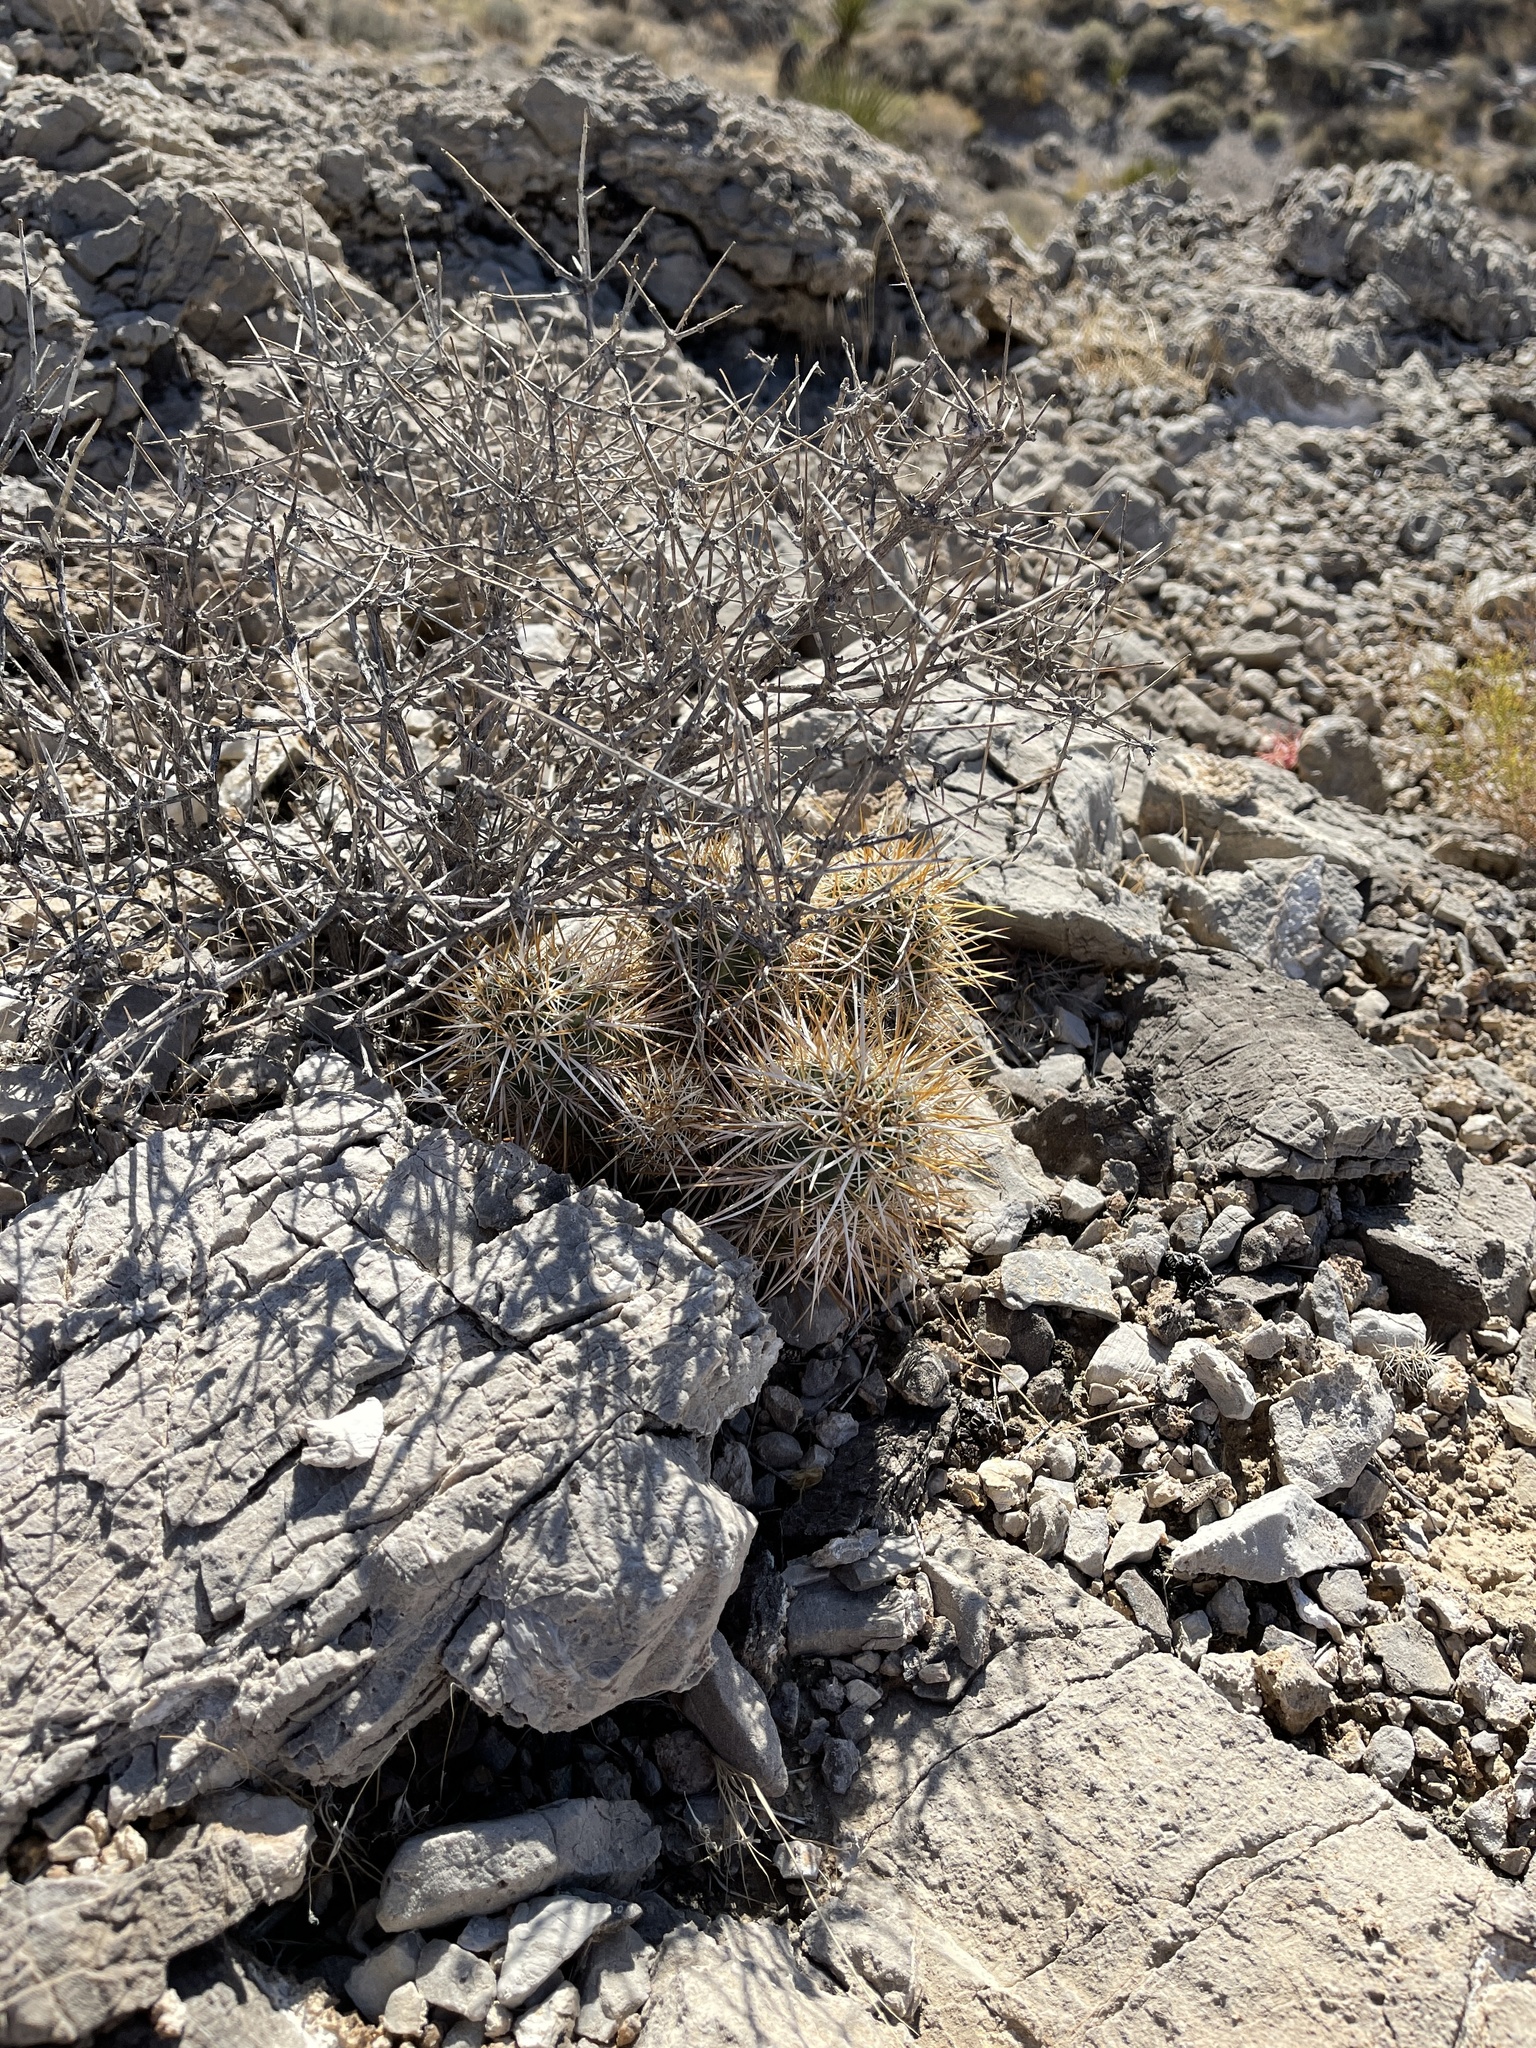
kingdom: Plantae
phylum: Tracheophyta
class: Magnoliopsida
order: Caryophyllales
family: Cactaceae
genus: Echinocereus
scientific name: Echinocereus engelmannii
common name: Engelmann's hedgehog cactus
